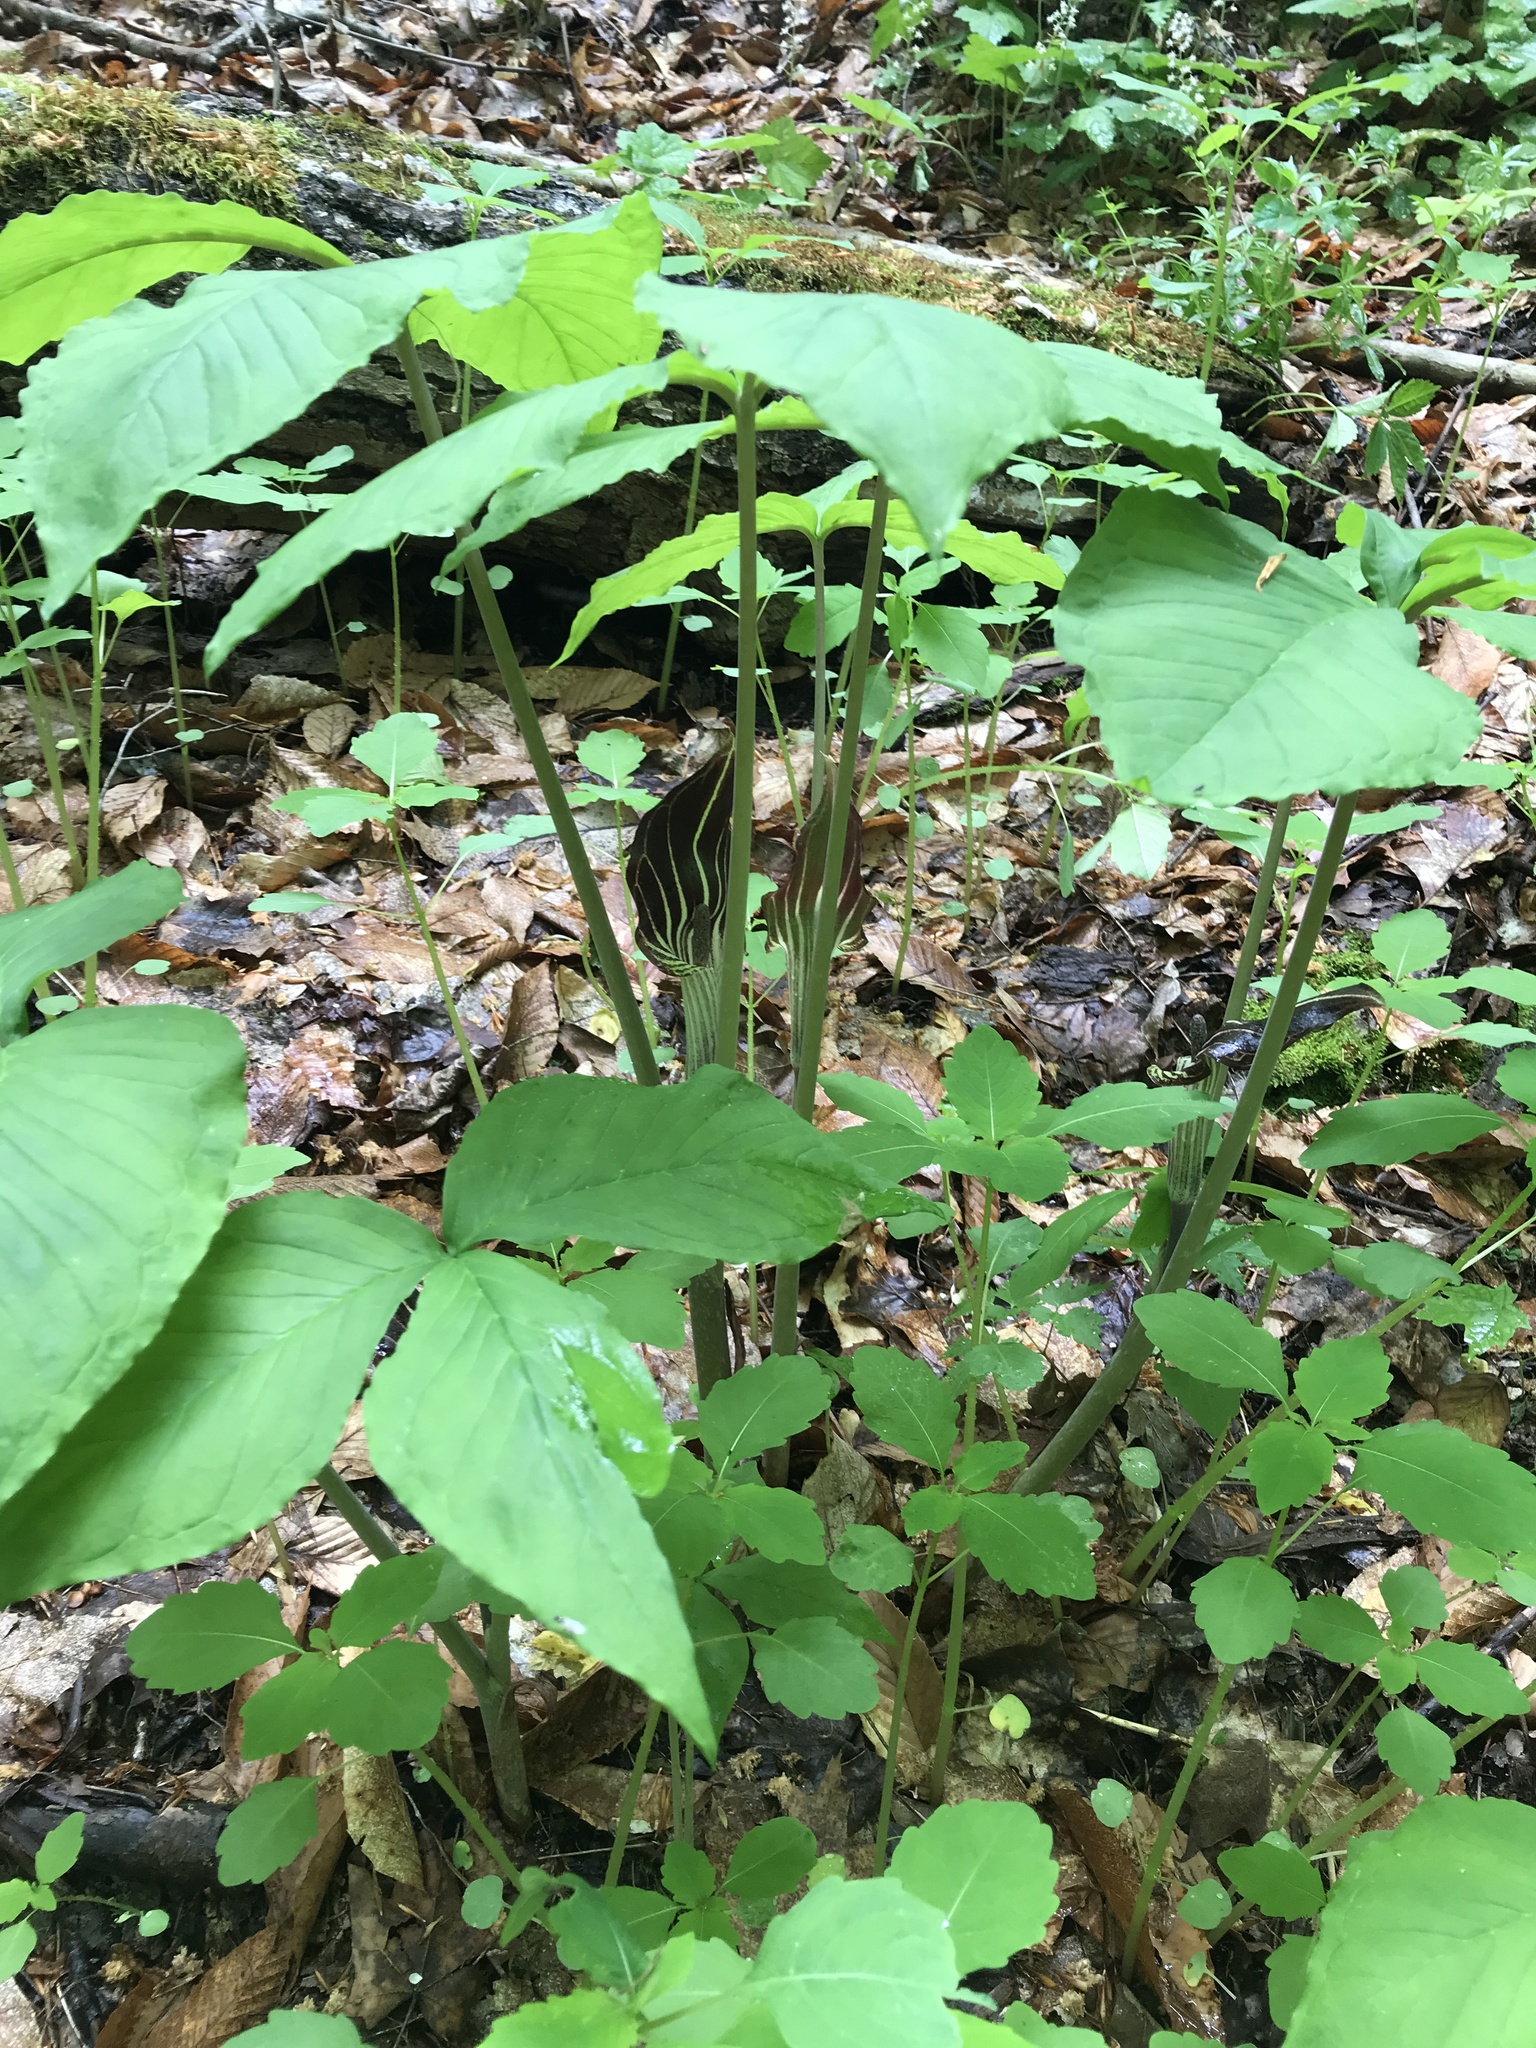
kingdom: Plantae
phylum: Tracheophyta
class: Liliopsida
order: Alismatales
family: Araceae
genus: Arisaema
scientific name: Arisaema triphyllum
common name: Jack-in-the-pulpit
